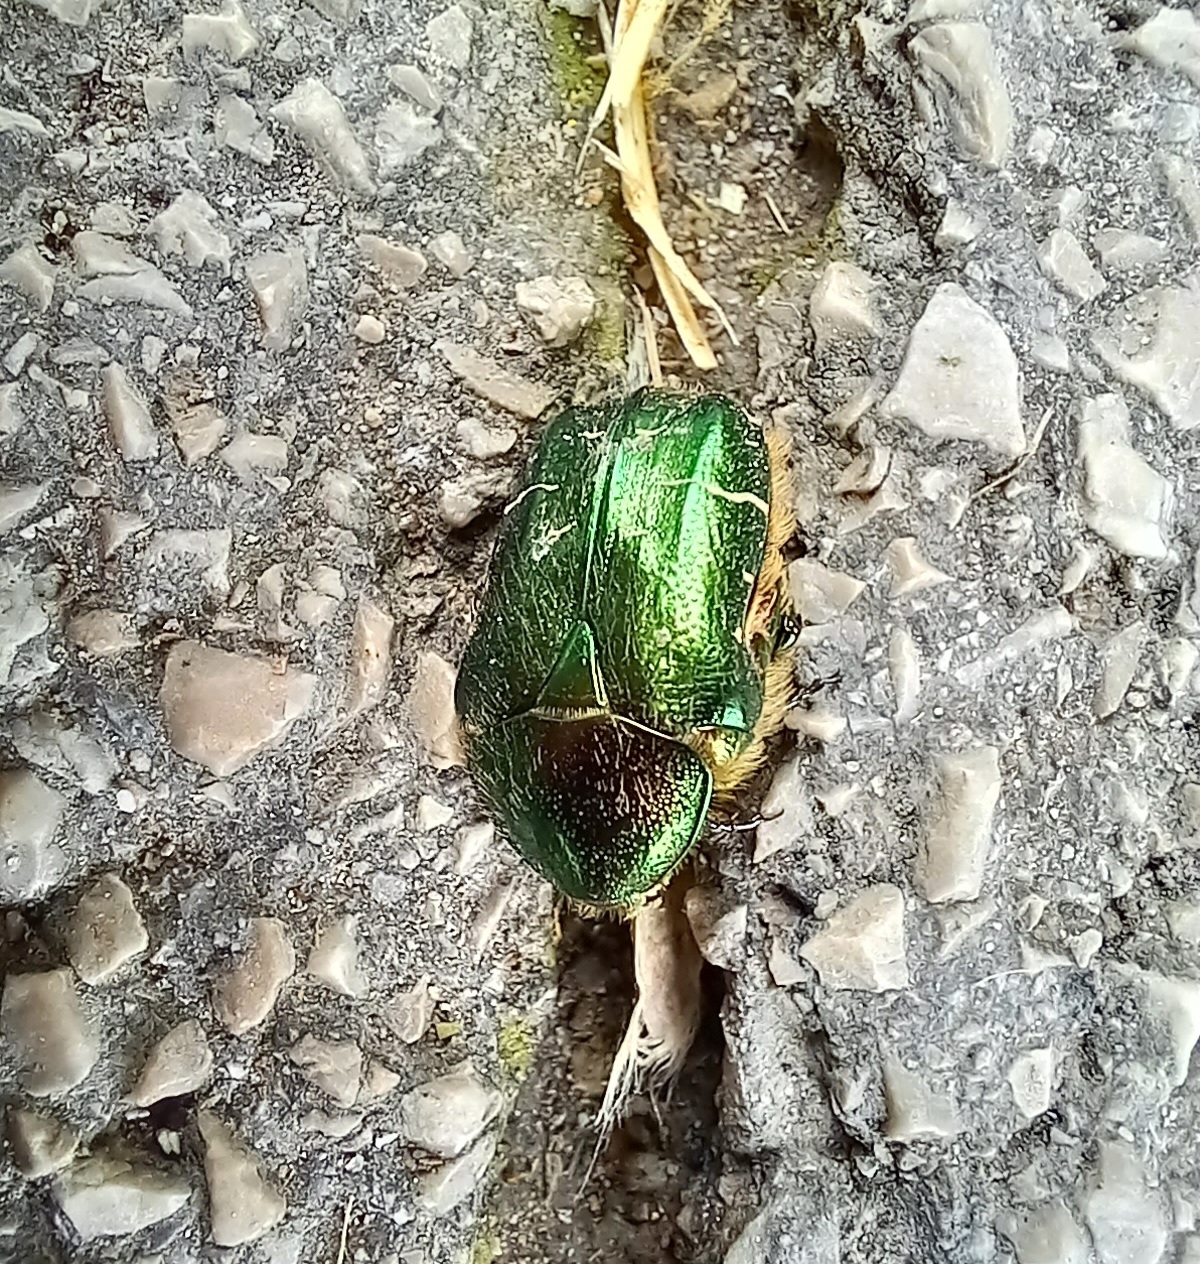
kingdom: Animalia
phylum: Arthropoda
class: Insecta
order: Coleoptera
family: Scarabaeidae
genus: Cetonia
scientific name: Cetonia aurata
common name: Rose chafer
